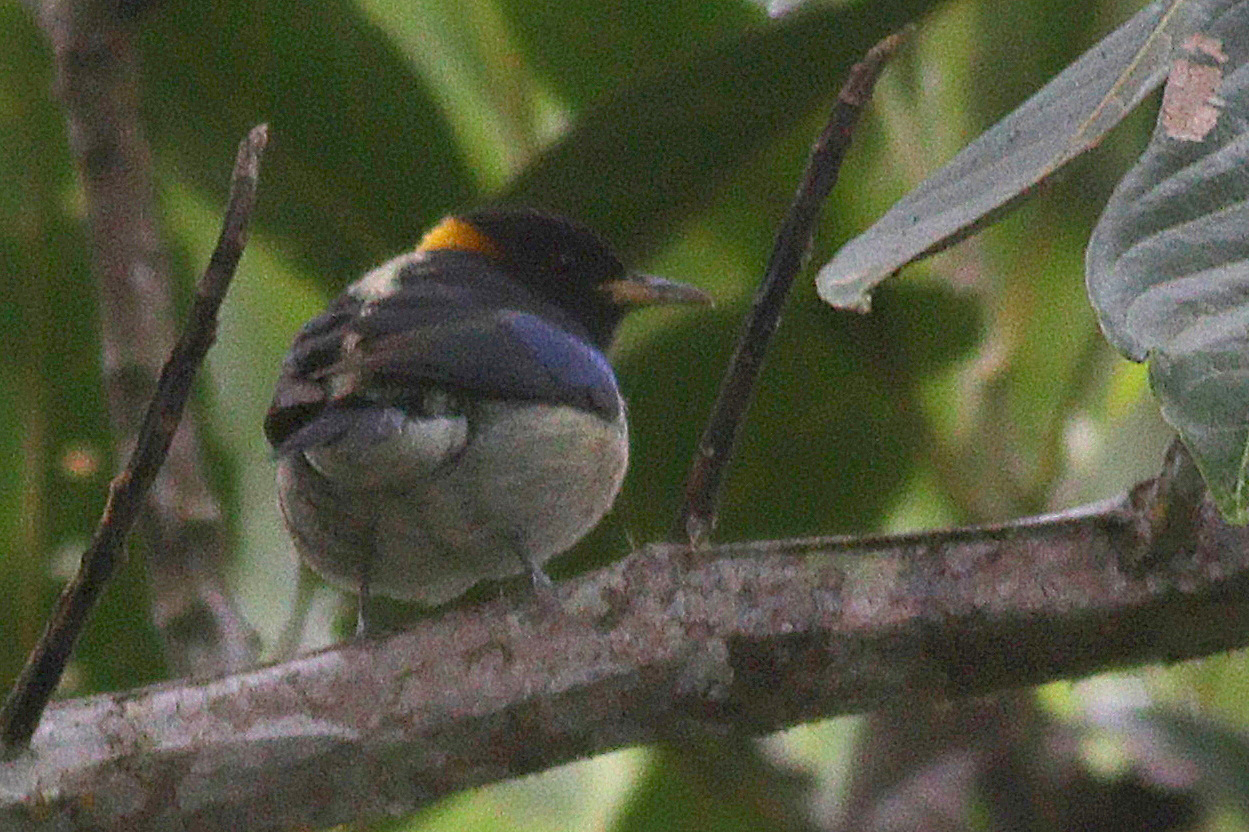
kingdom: Animalia
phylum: Chordata
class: Aves
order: Passeriformes
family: Thraupidae
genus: Iridophanes
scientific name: Iridophanes pulcherrimus
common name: Golden-collared honeycreeper
